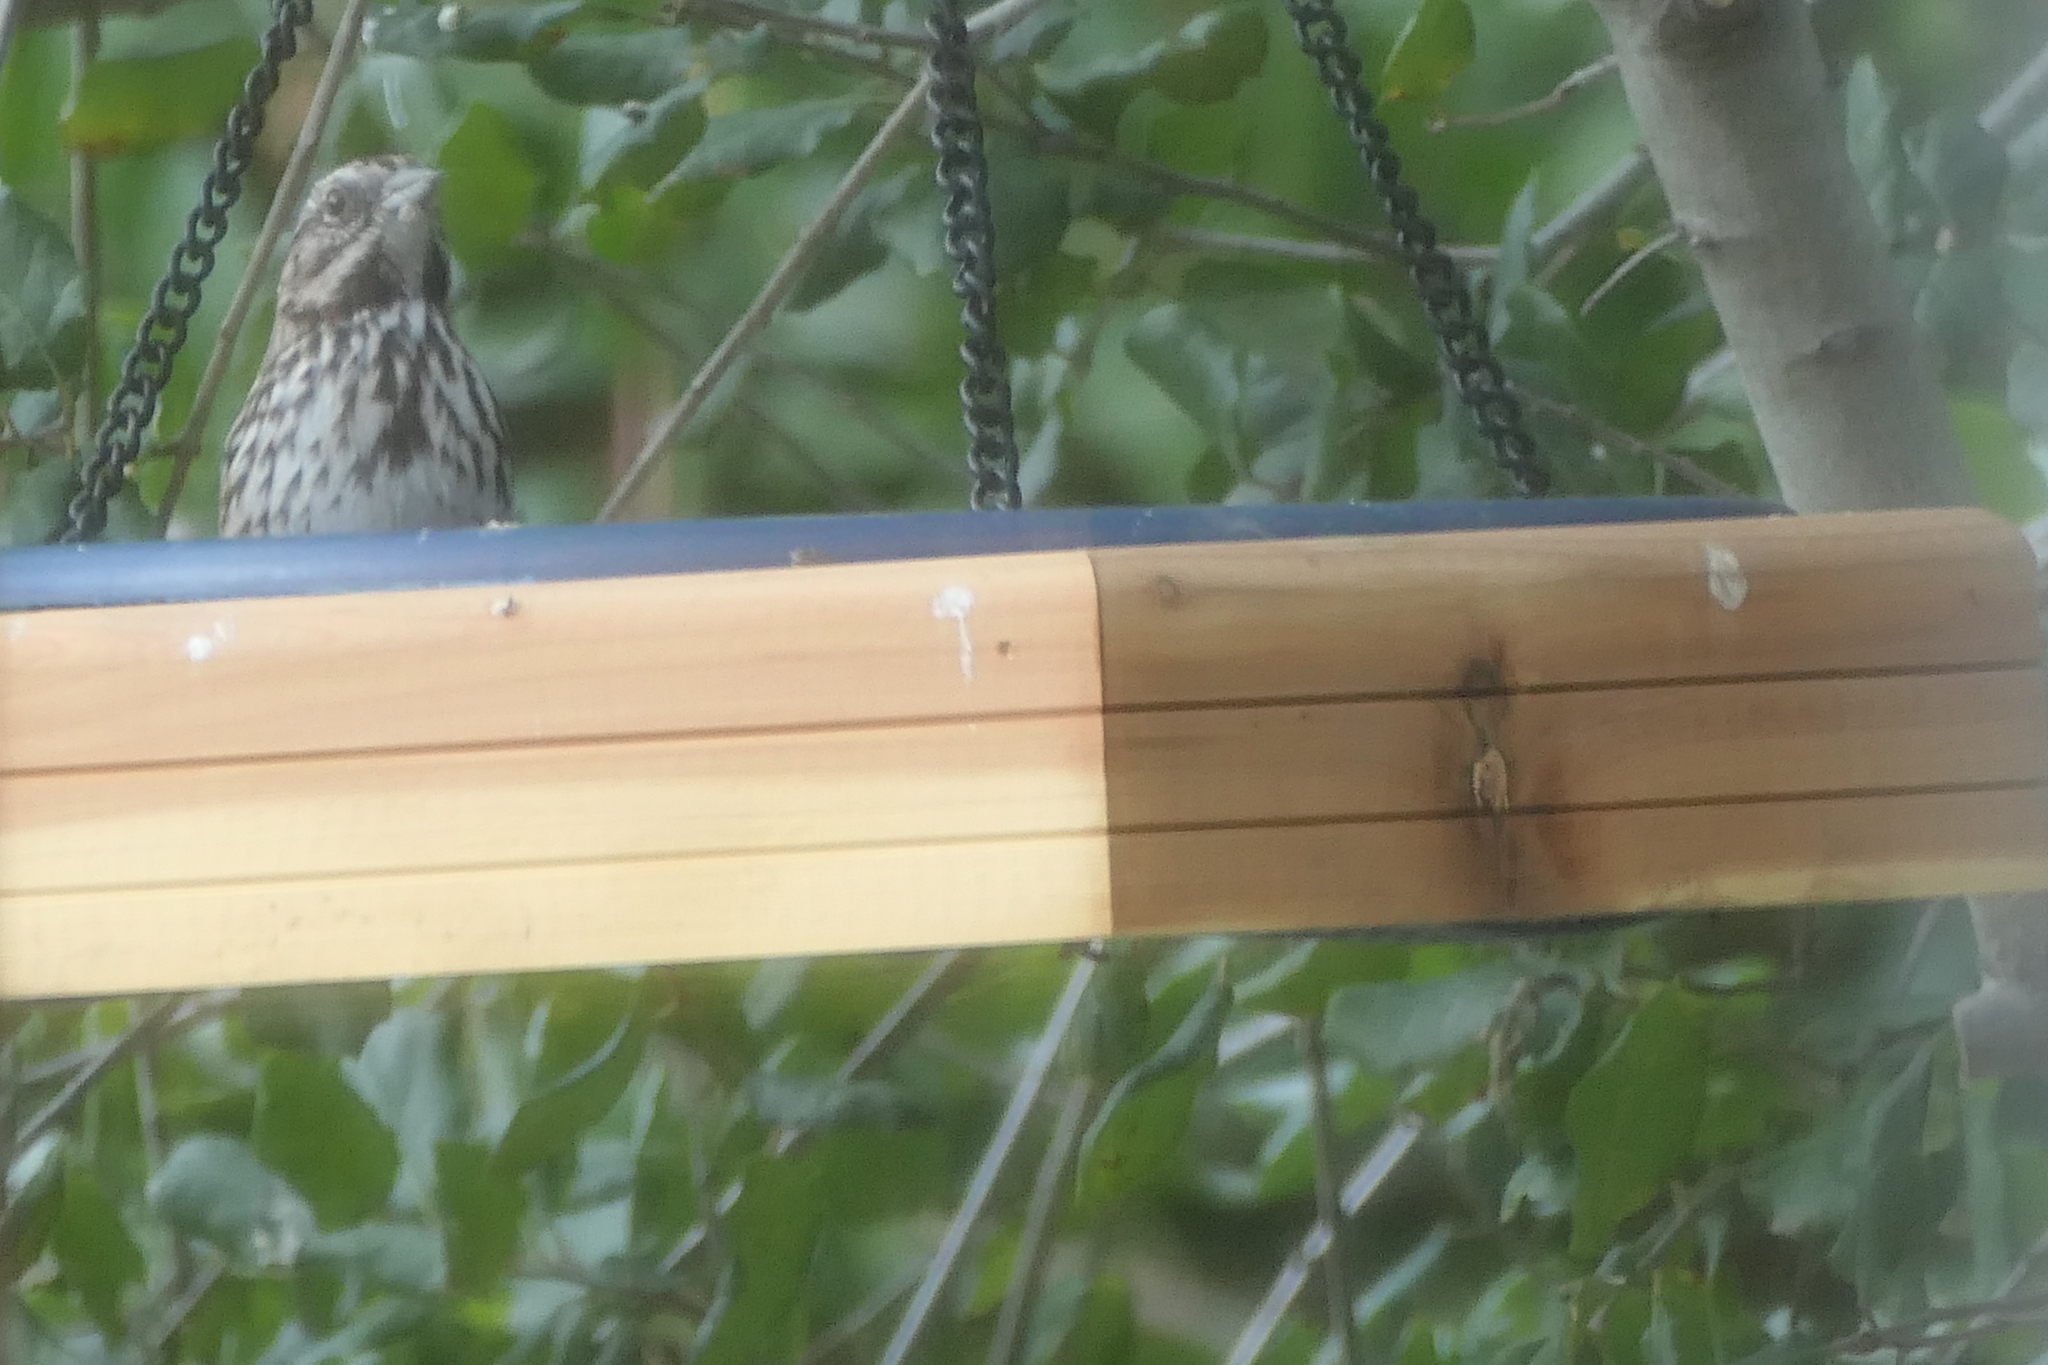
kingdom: Animalia
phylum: Chordata
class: Aves
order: Passeriformes
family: Passerellidae
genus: Melospiza
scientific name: Melospiza melodia
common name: Song sparrow
